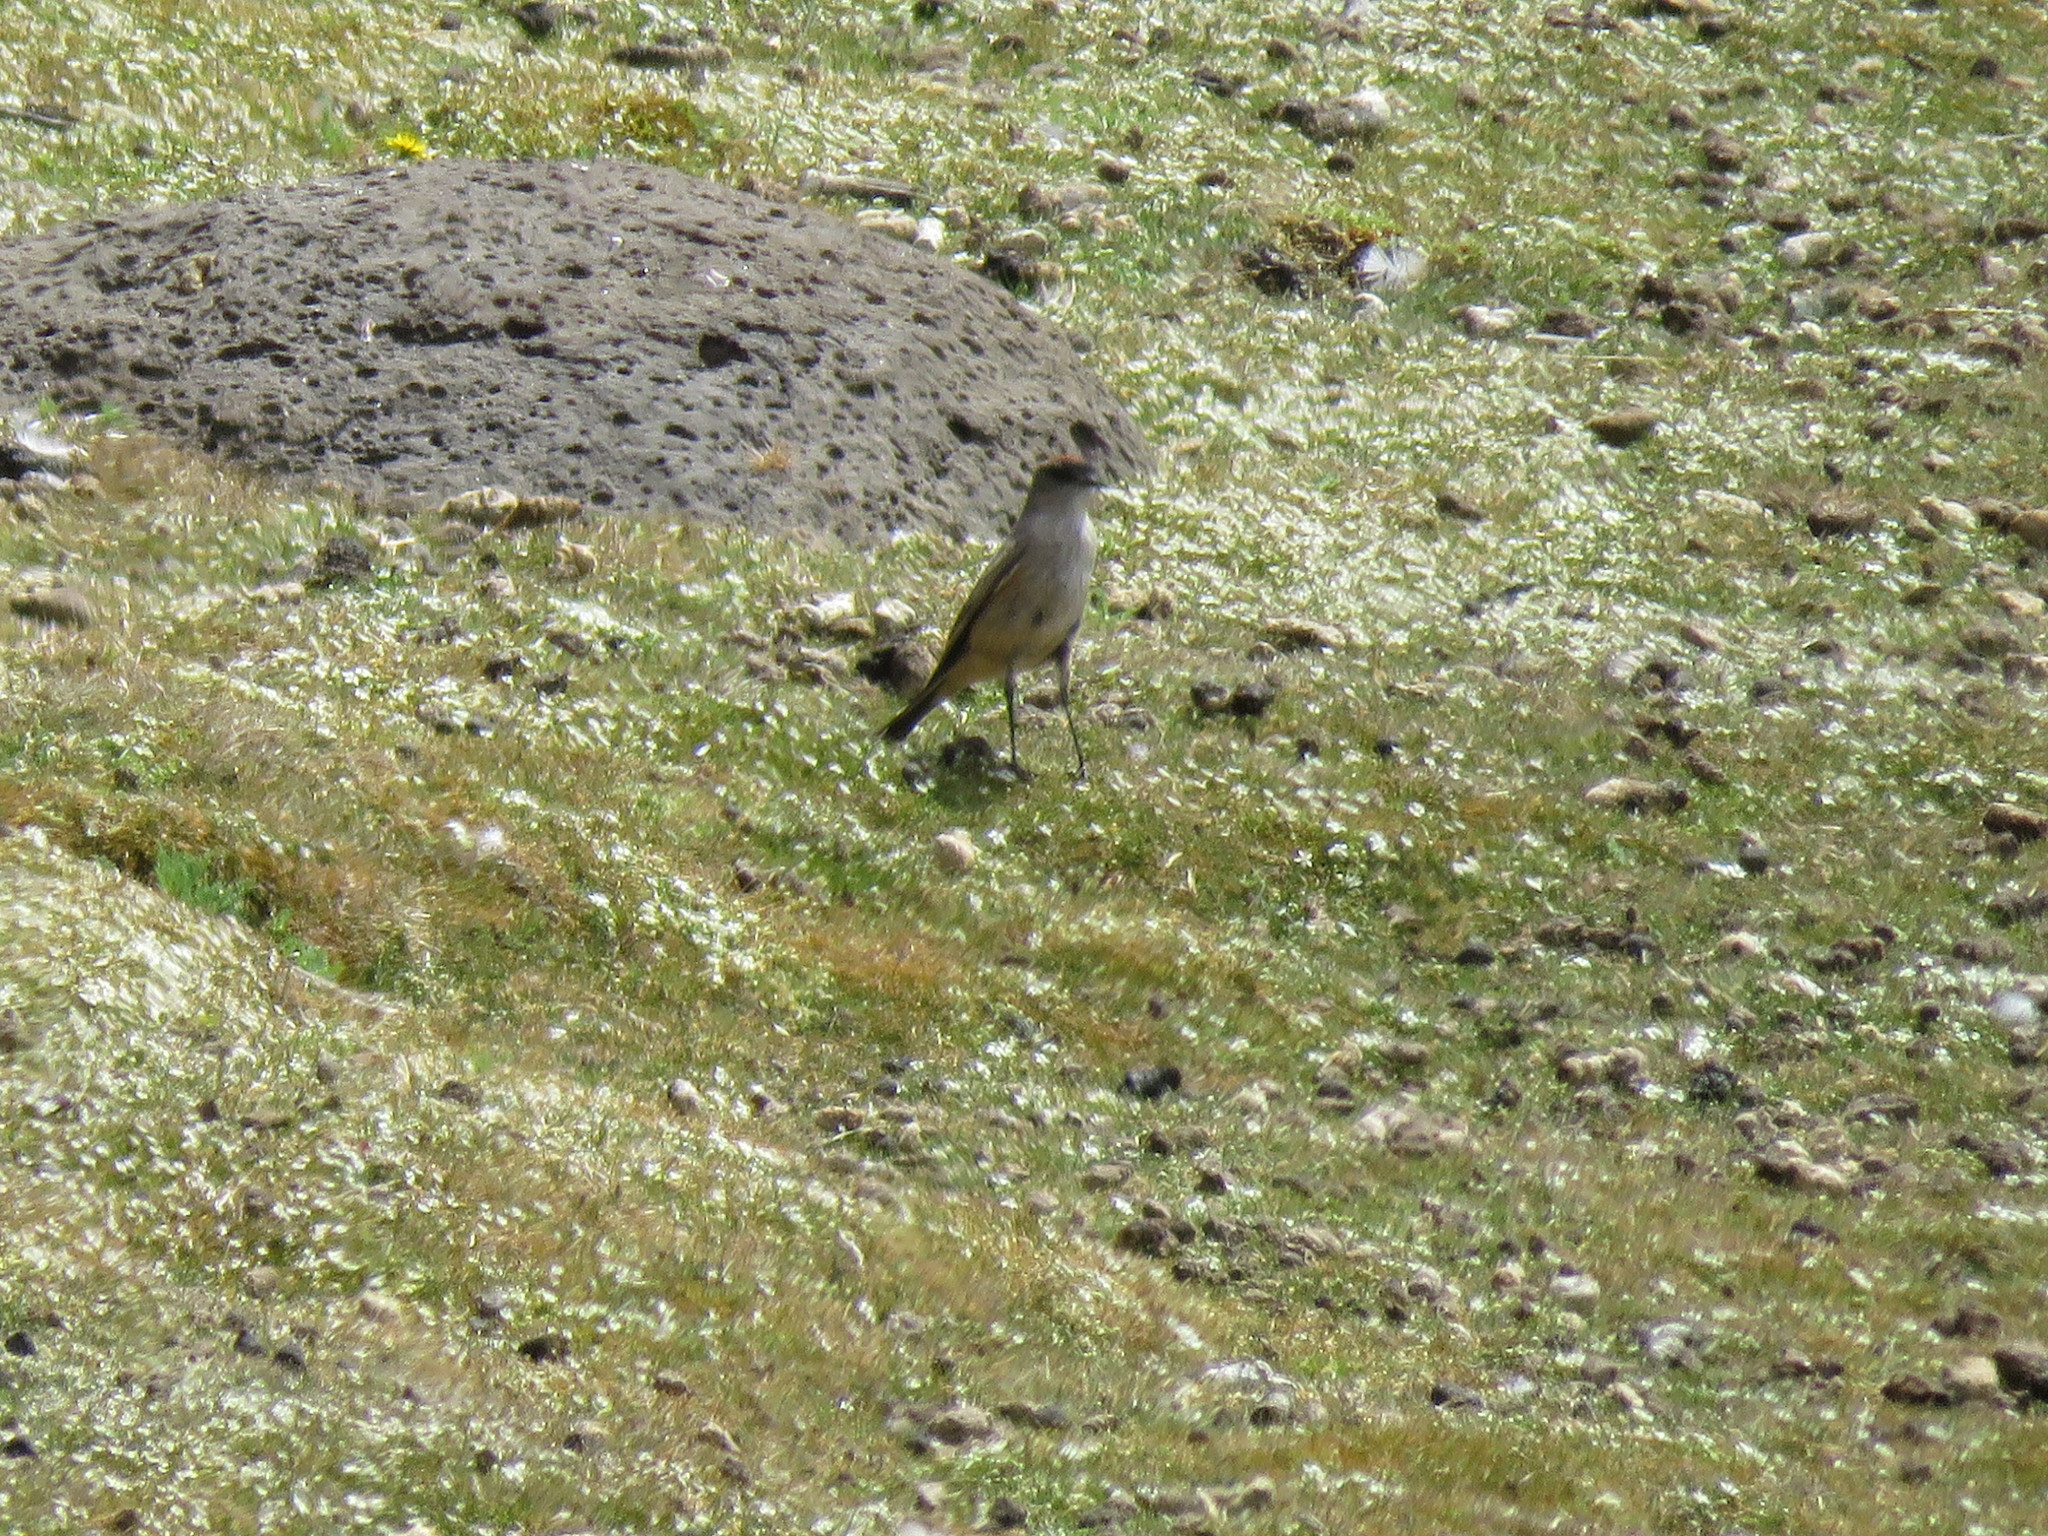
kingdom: Animalia
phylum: Chordata
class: Aves
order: Passeriformes
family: Tyrannidae
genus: Muscisaxicola
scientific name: Muscisaxicola capistratus
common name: Cinnamon-bellied ground tyrant
